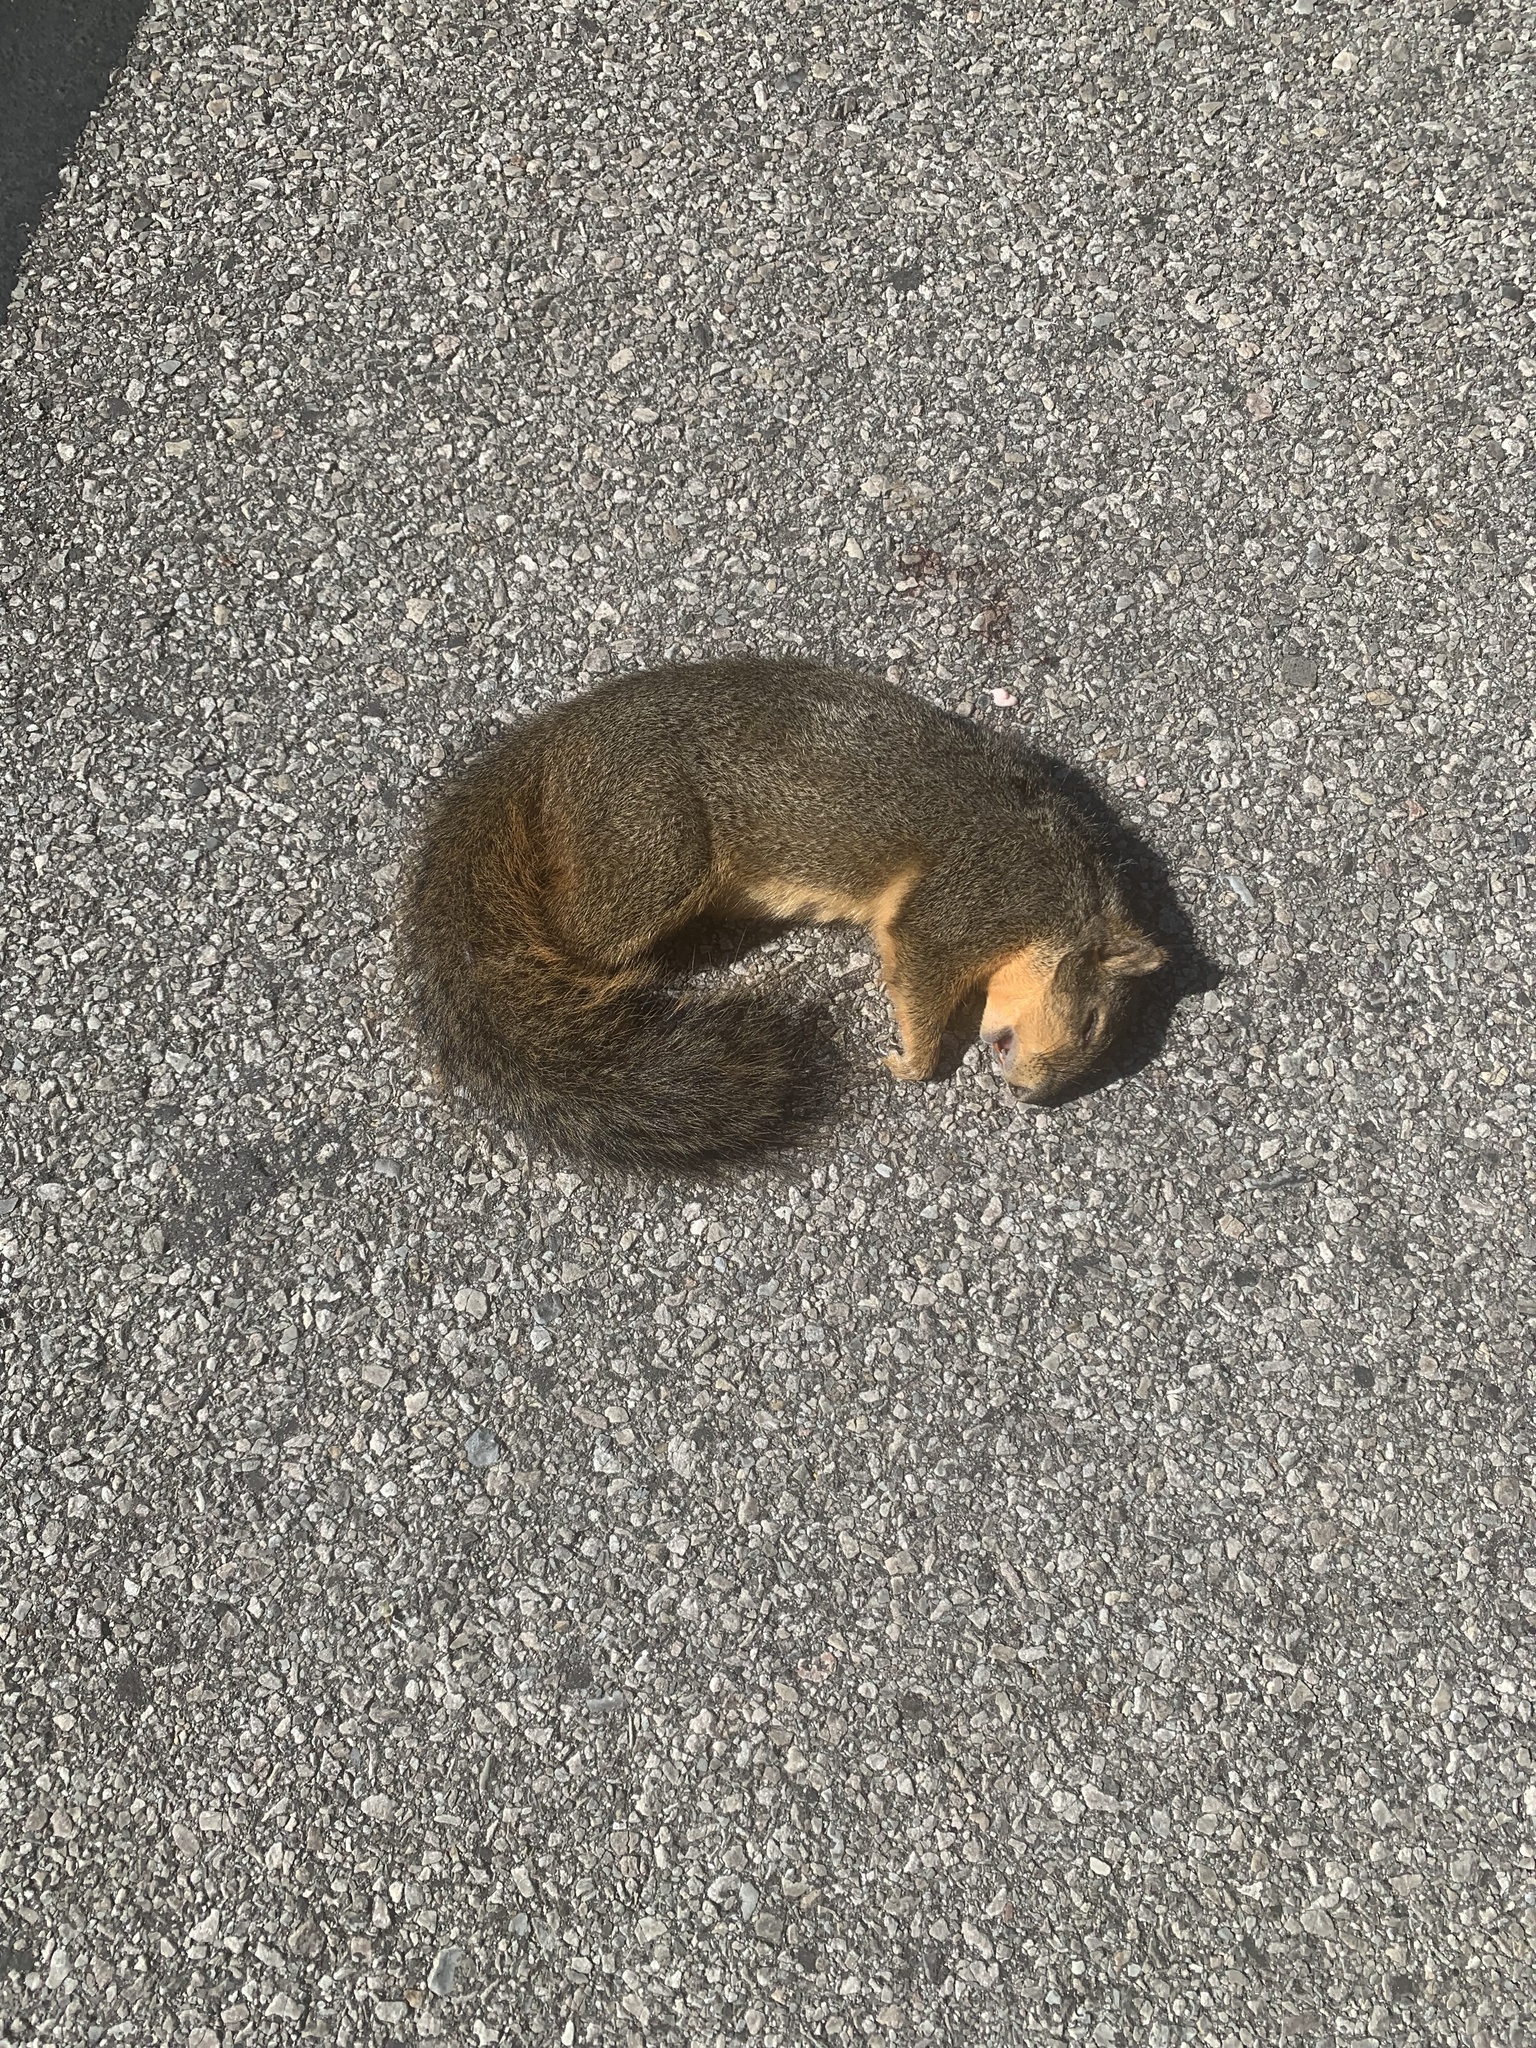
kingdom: Animalia
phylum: Chordata
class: Mammalia
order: Rodentia
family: Sciuridae
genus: Sciurus
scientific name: Sciurus niger
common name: Fox squirrel
